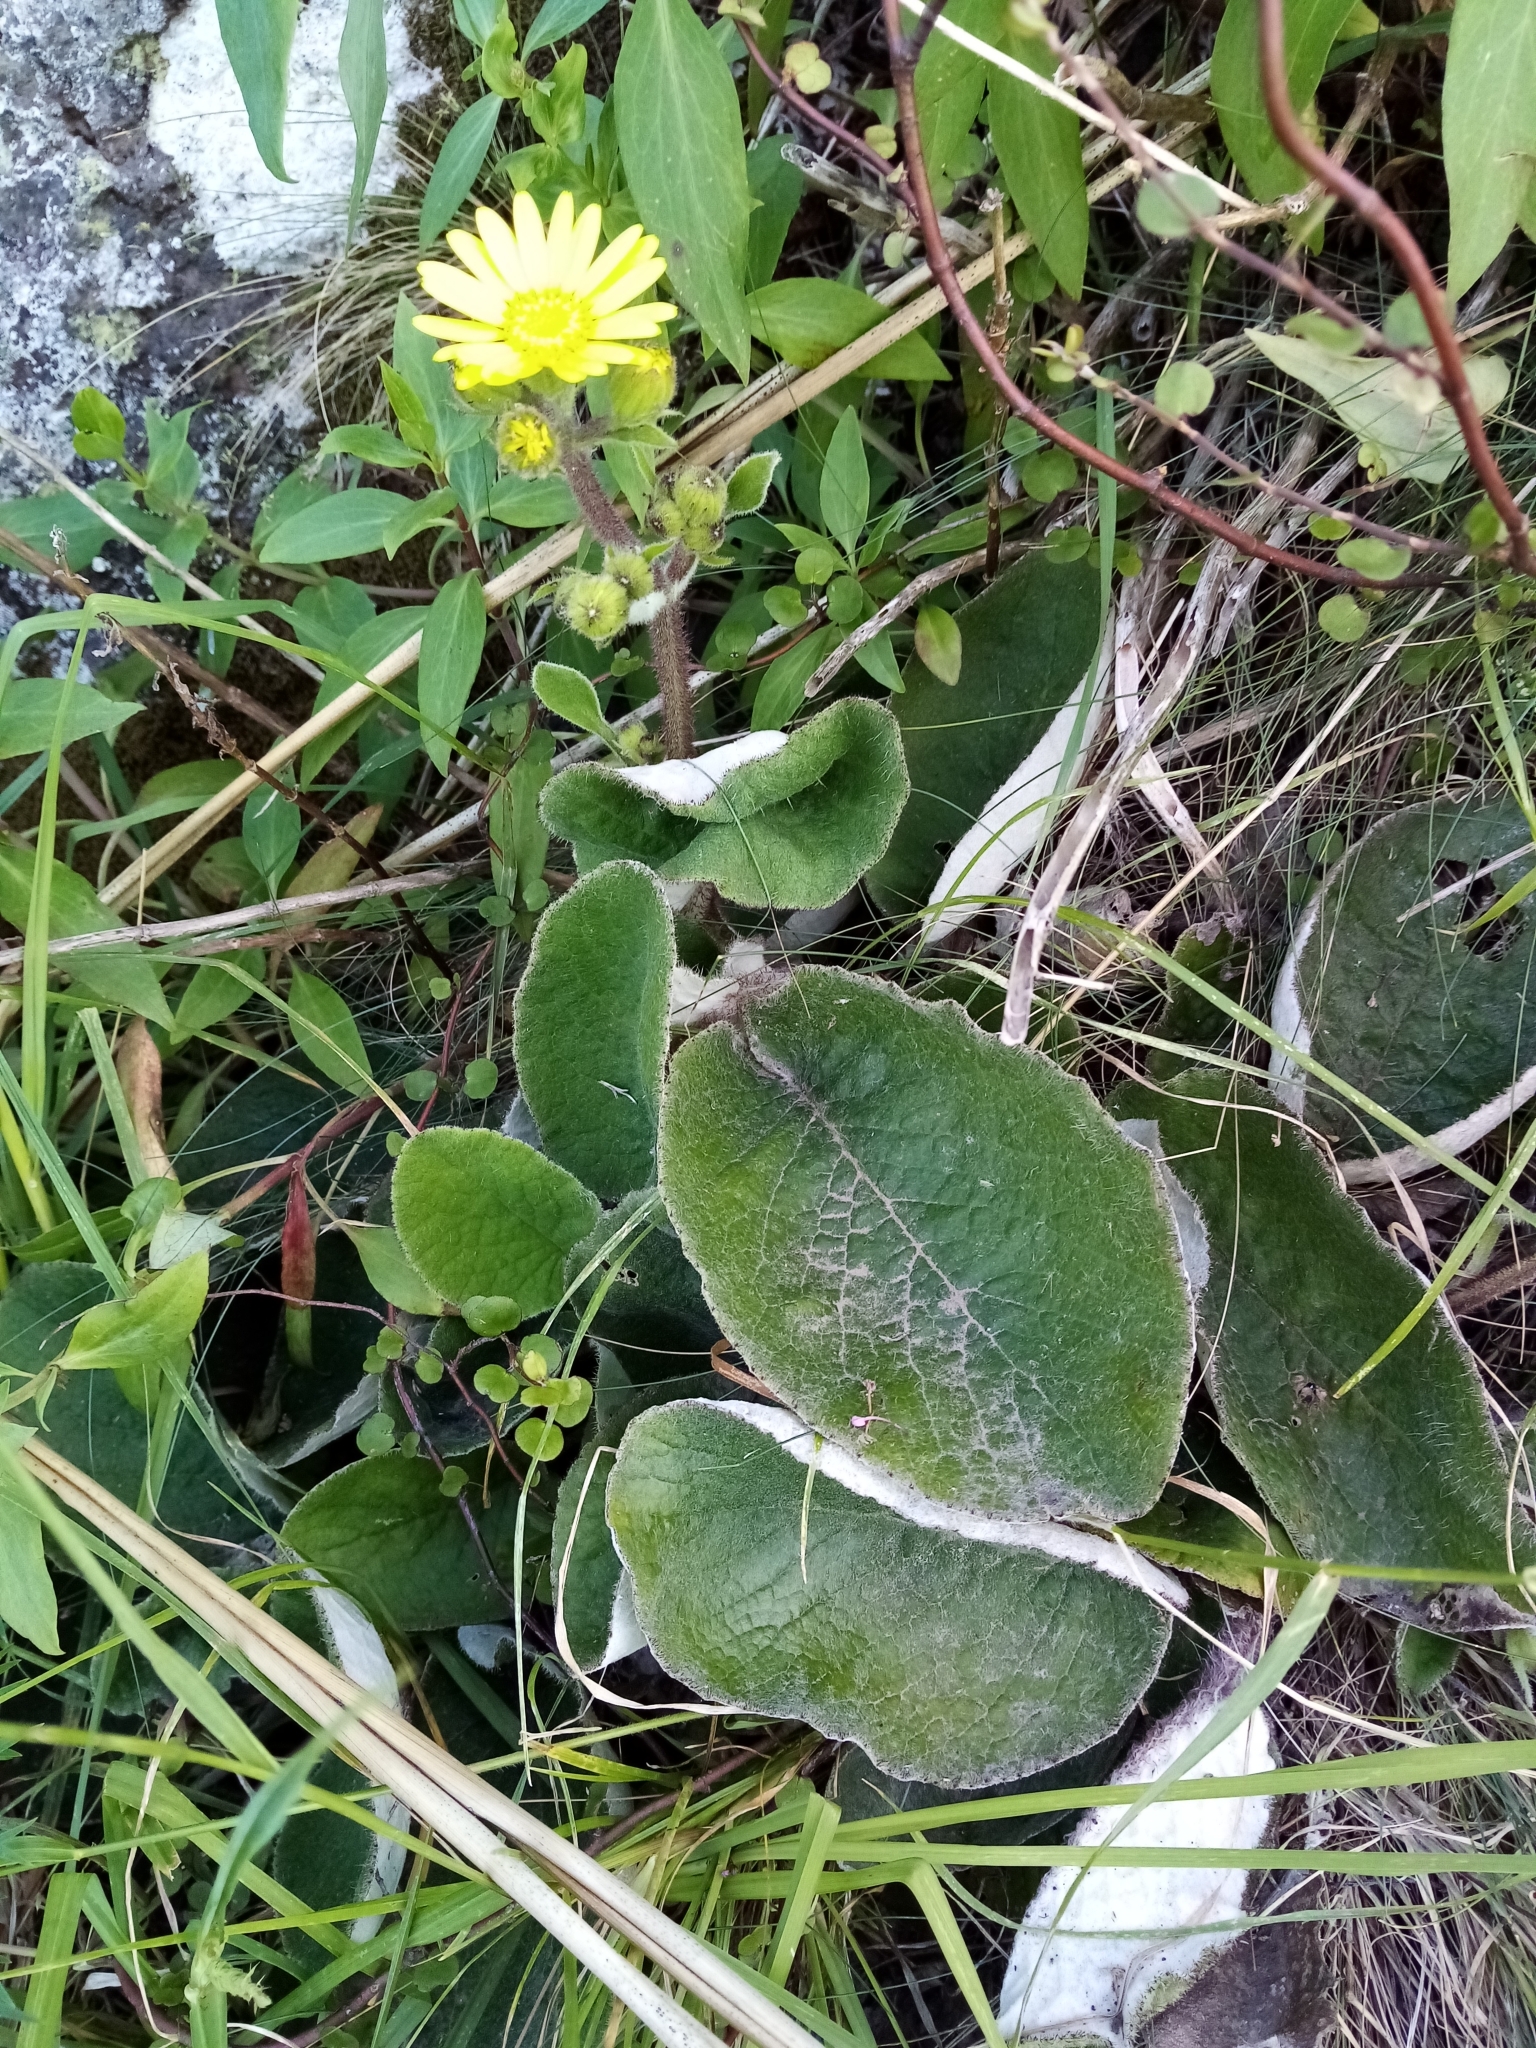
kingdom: Plantae
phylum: Tracheophyta
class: Magnoliopsida
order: Asterales
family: Asteraceae
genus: Brachyglottis
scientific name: Brachyglottis lagopus
